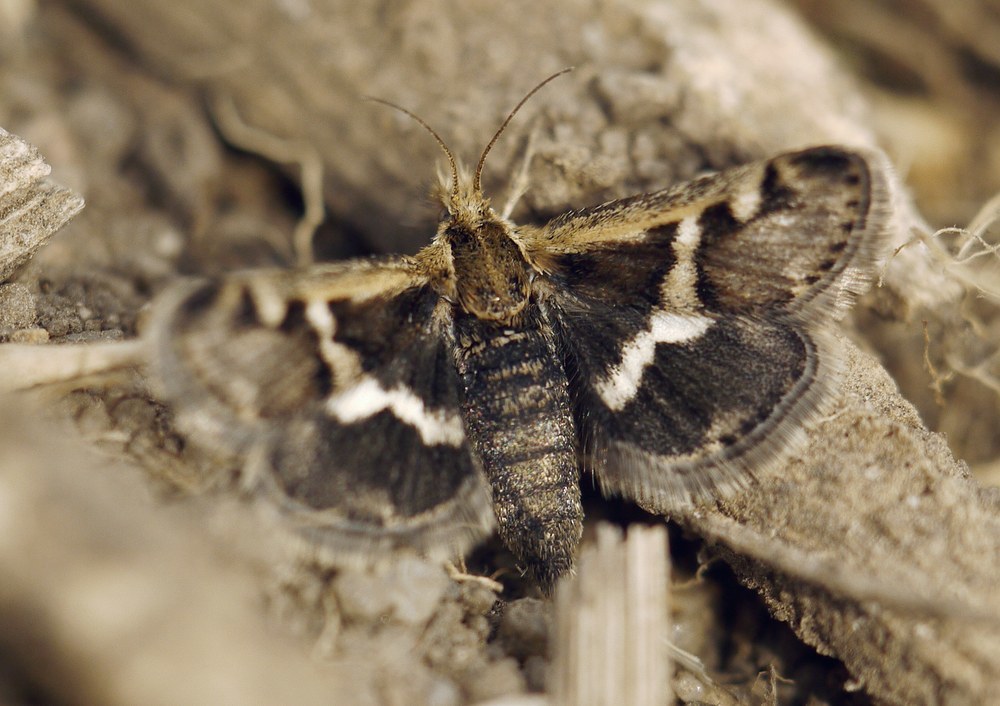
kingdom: Animalia
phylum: Arthropoda
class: Insecta
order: Lepidoptera
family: Crambidae
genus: Titanio
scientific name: Titanio normalis
